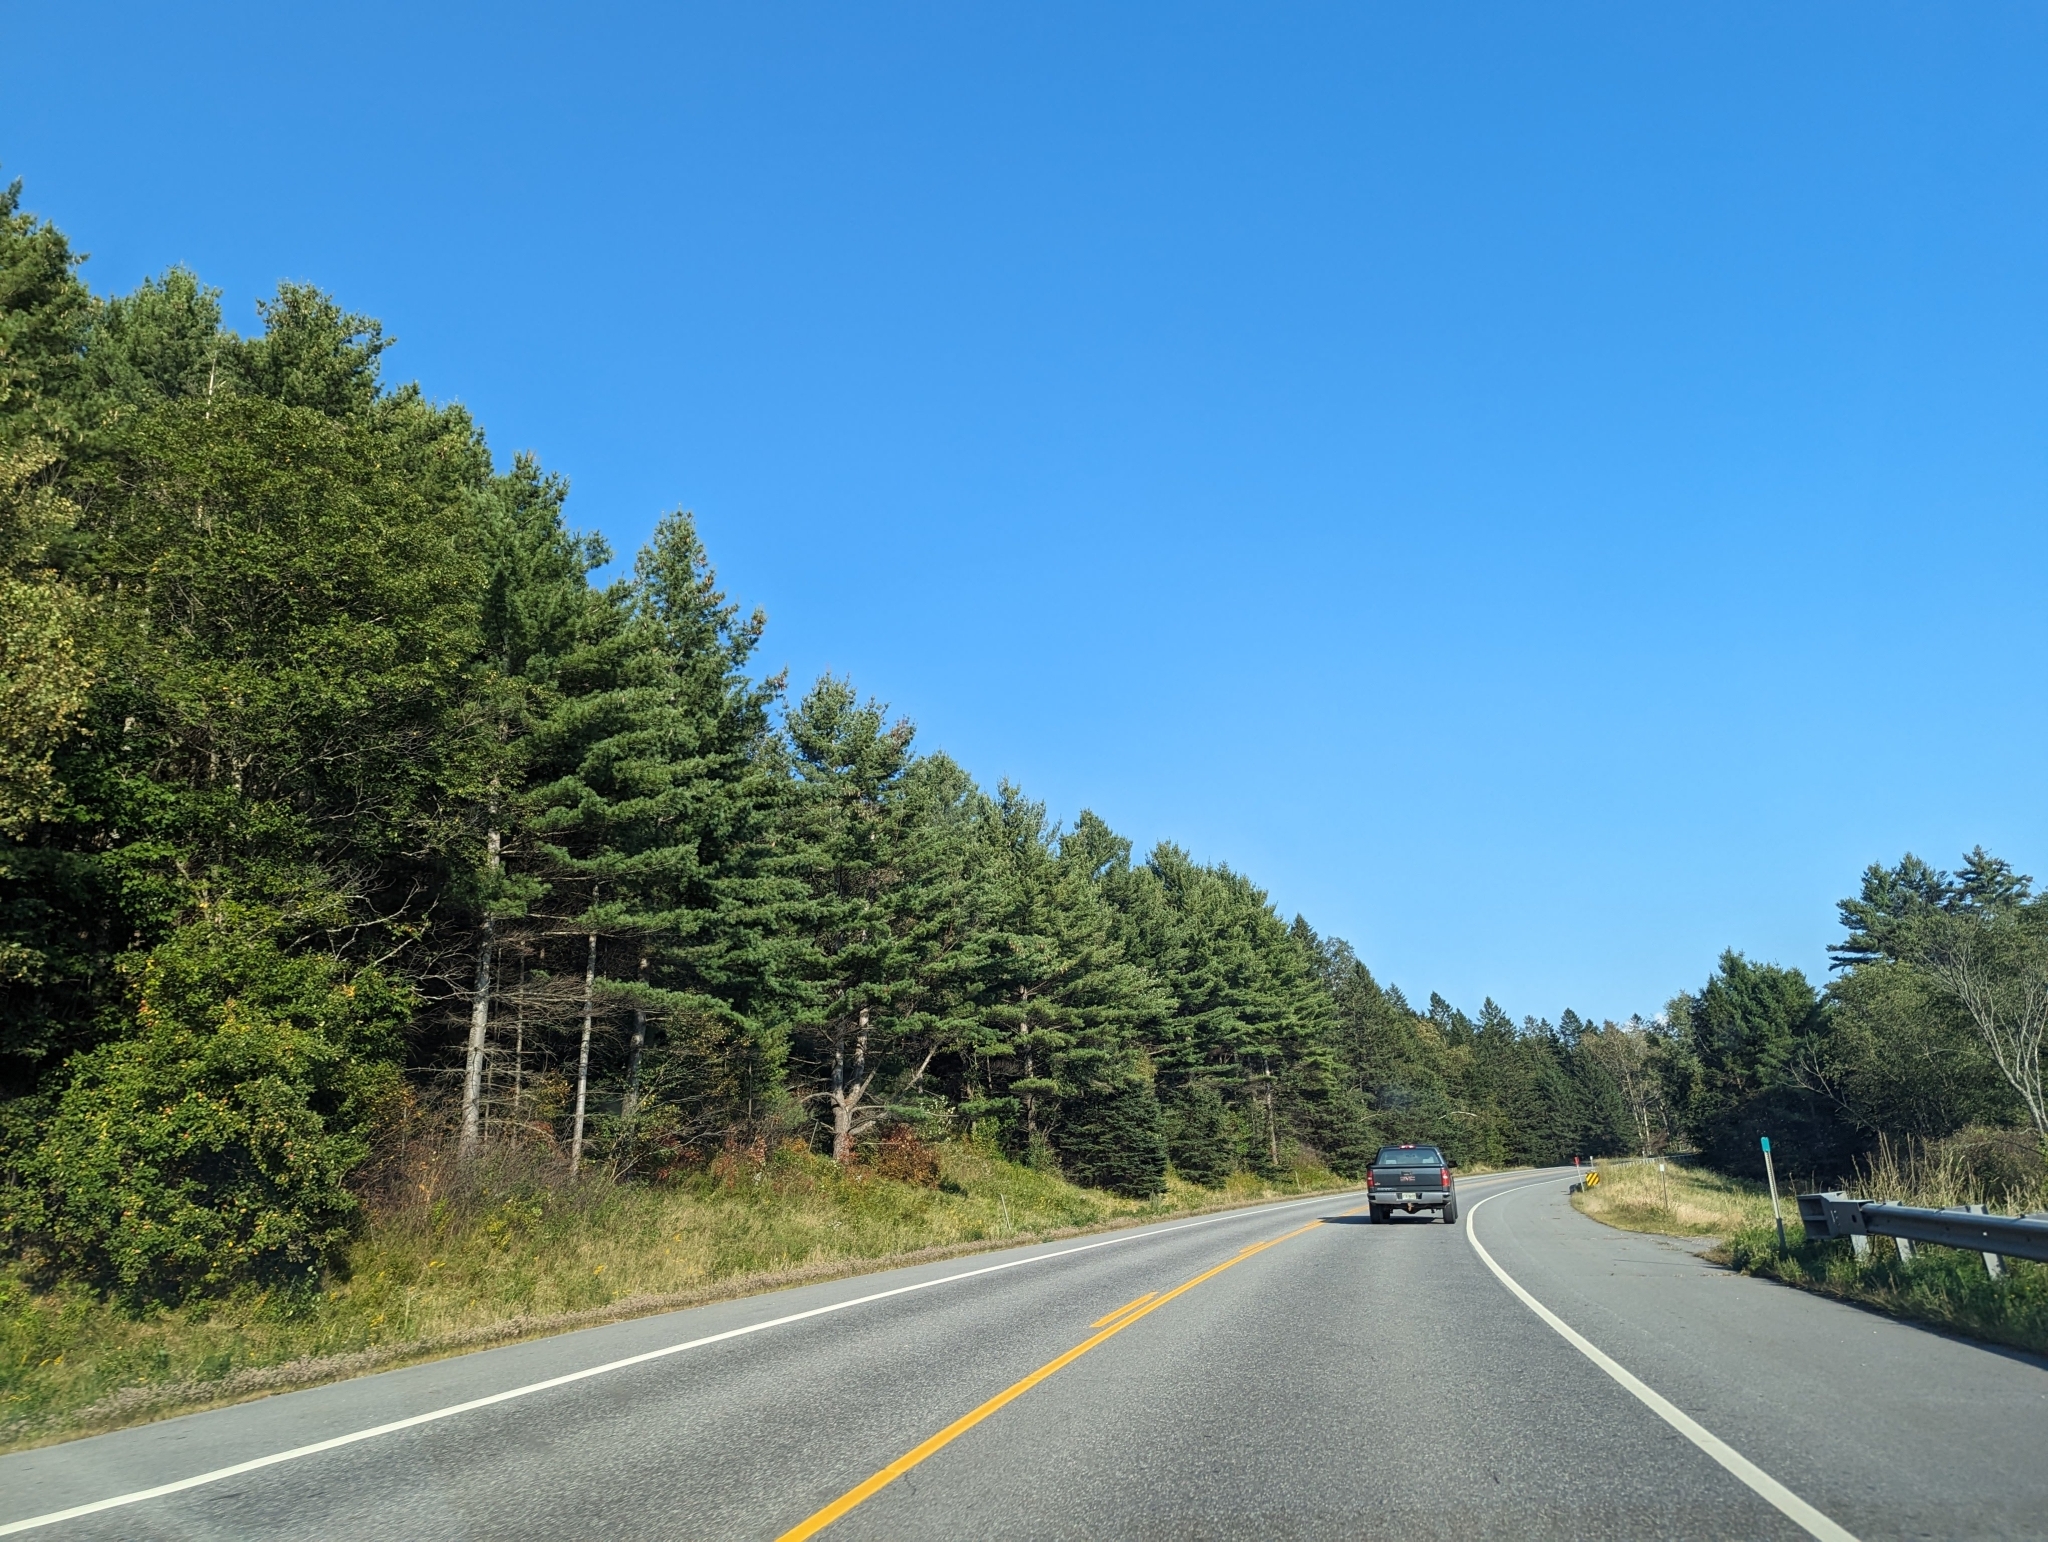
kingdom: Plantae
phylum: Tracheophyta
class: Pinopsida
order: Pinales
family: Pinaceae
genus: Pinus
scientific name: Pinus strobus
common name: Weymouth pine
